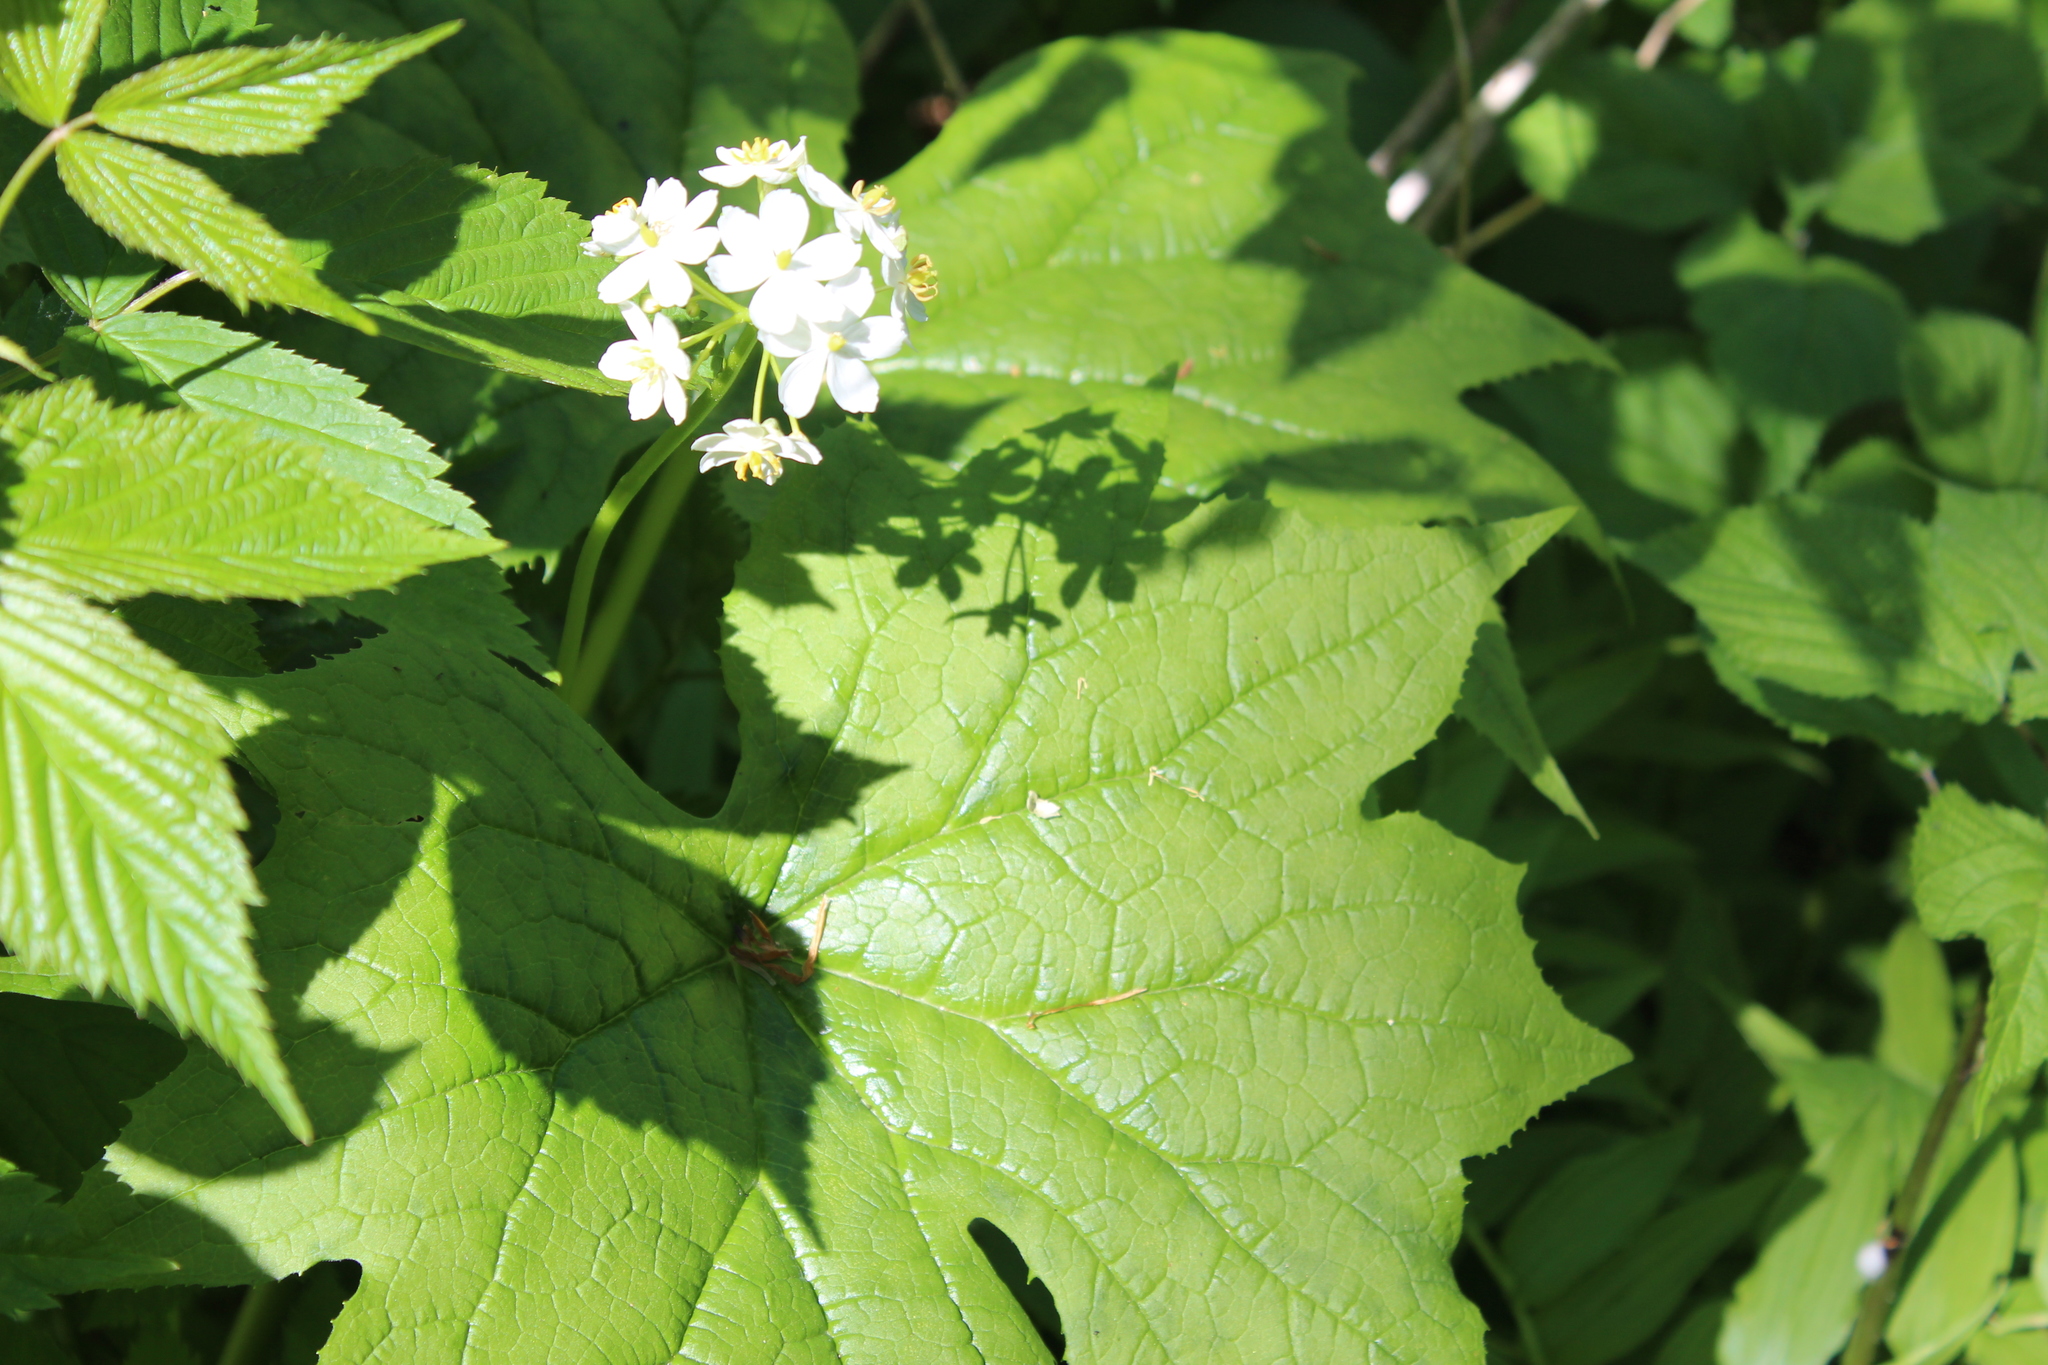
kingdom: Plantae
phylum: Tracheophyta
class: Magnoliopsida
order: Ranunculales
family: Berberidaceae
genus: Diphylleia
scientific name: Diphylleia cymosa
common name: Umbrella-leaf
